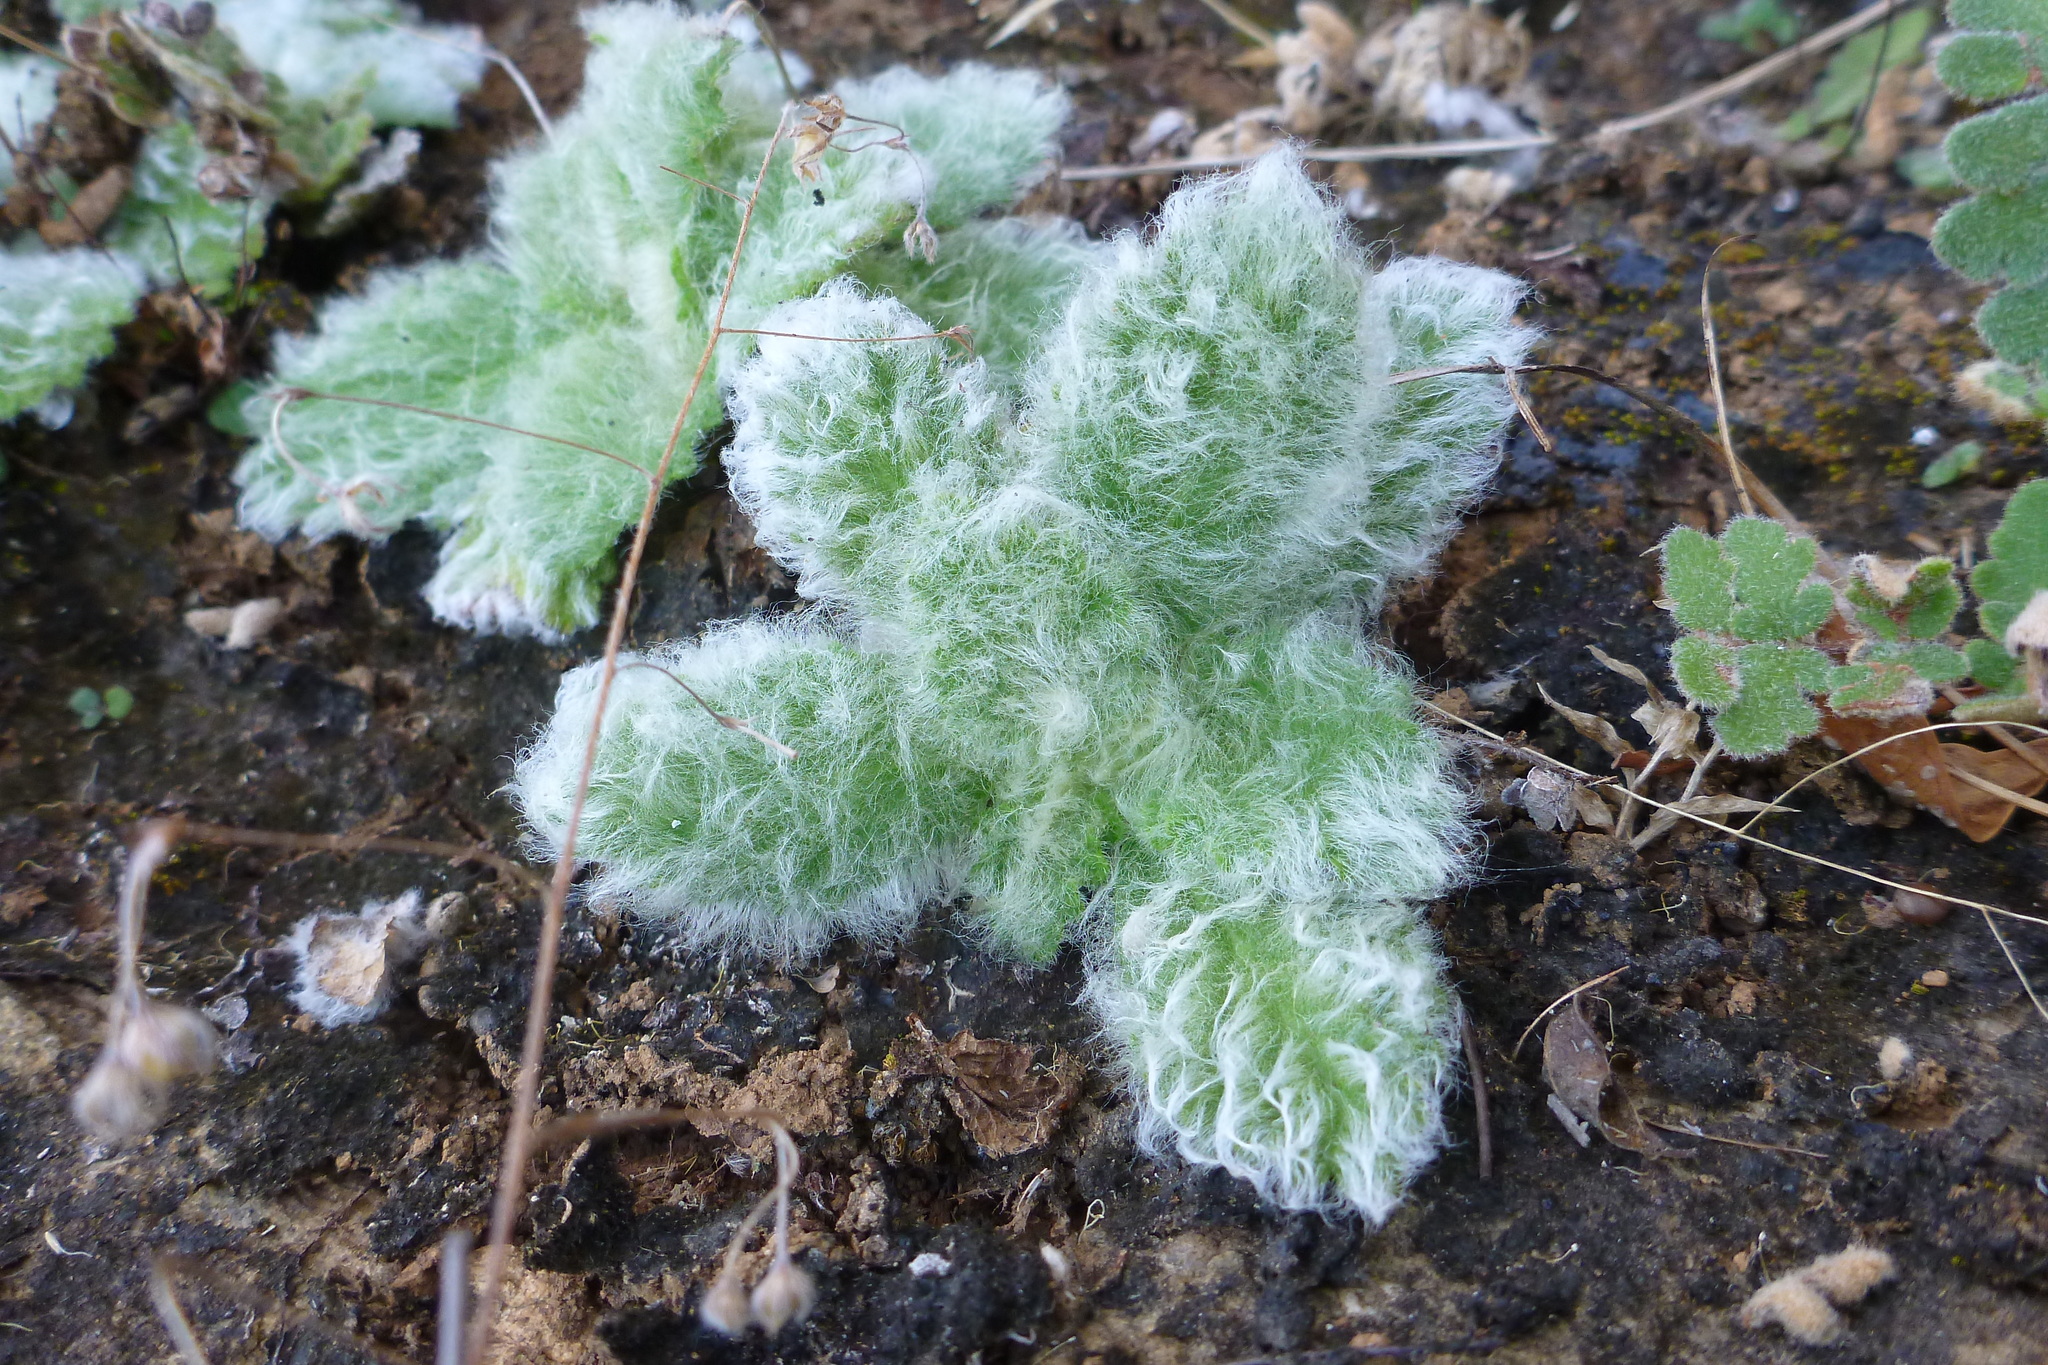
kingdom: Plantae
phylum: Tracheophyta
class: Magnoliopsida
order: Lamiales
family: Gesneriaceae
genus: Boea
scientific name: Boea hygroscopica
